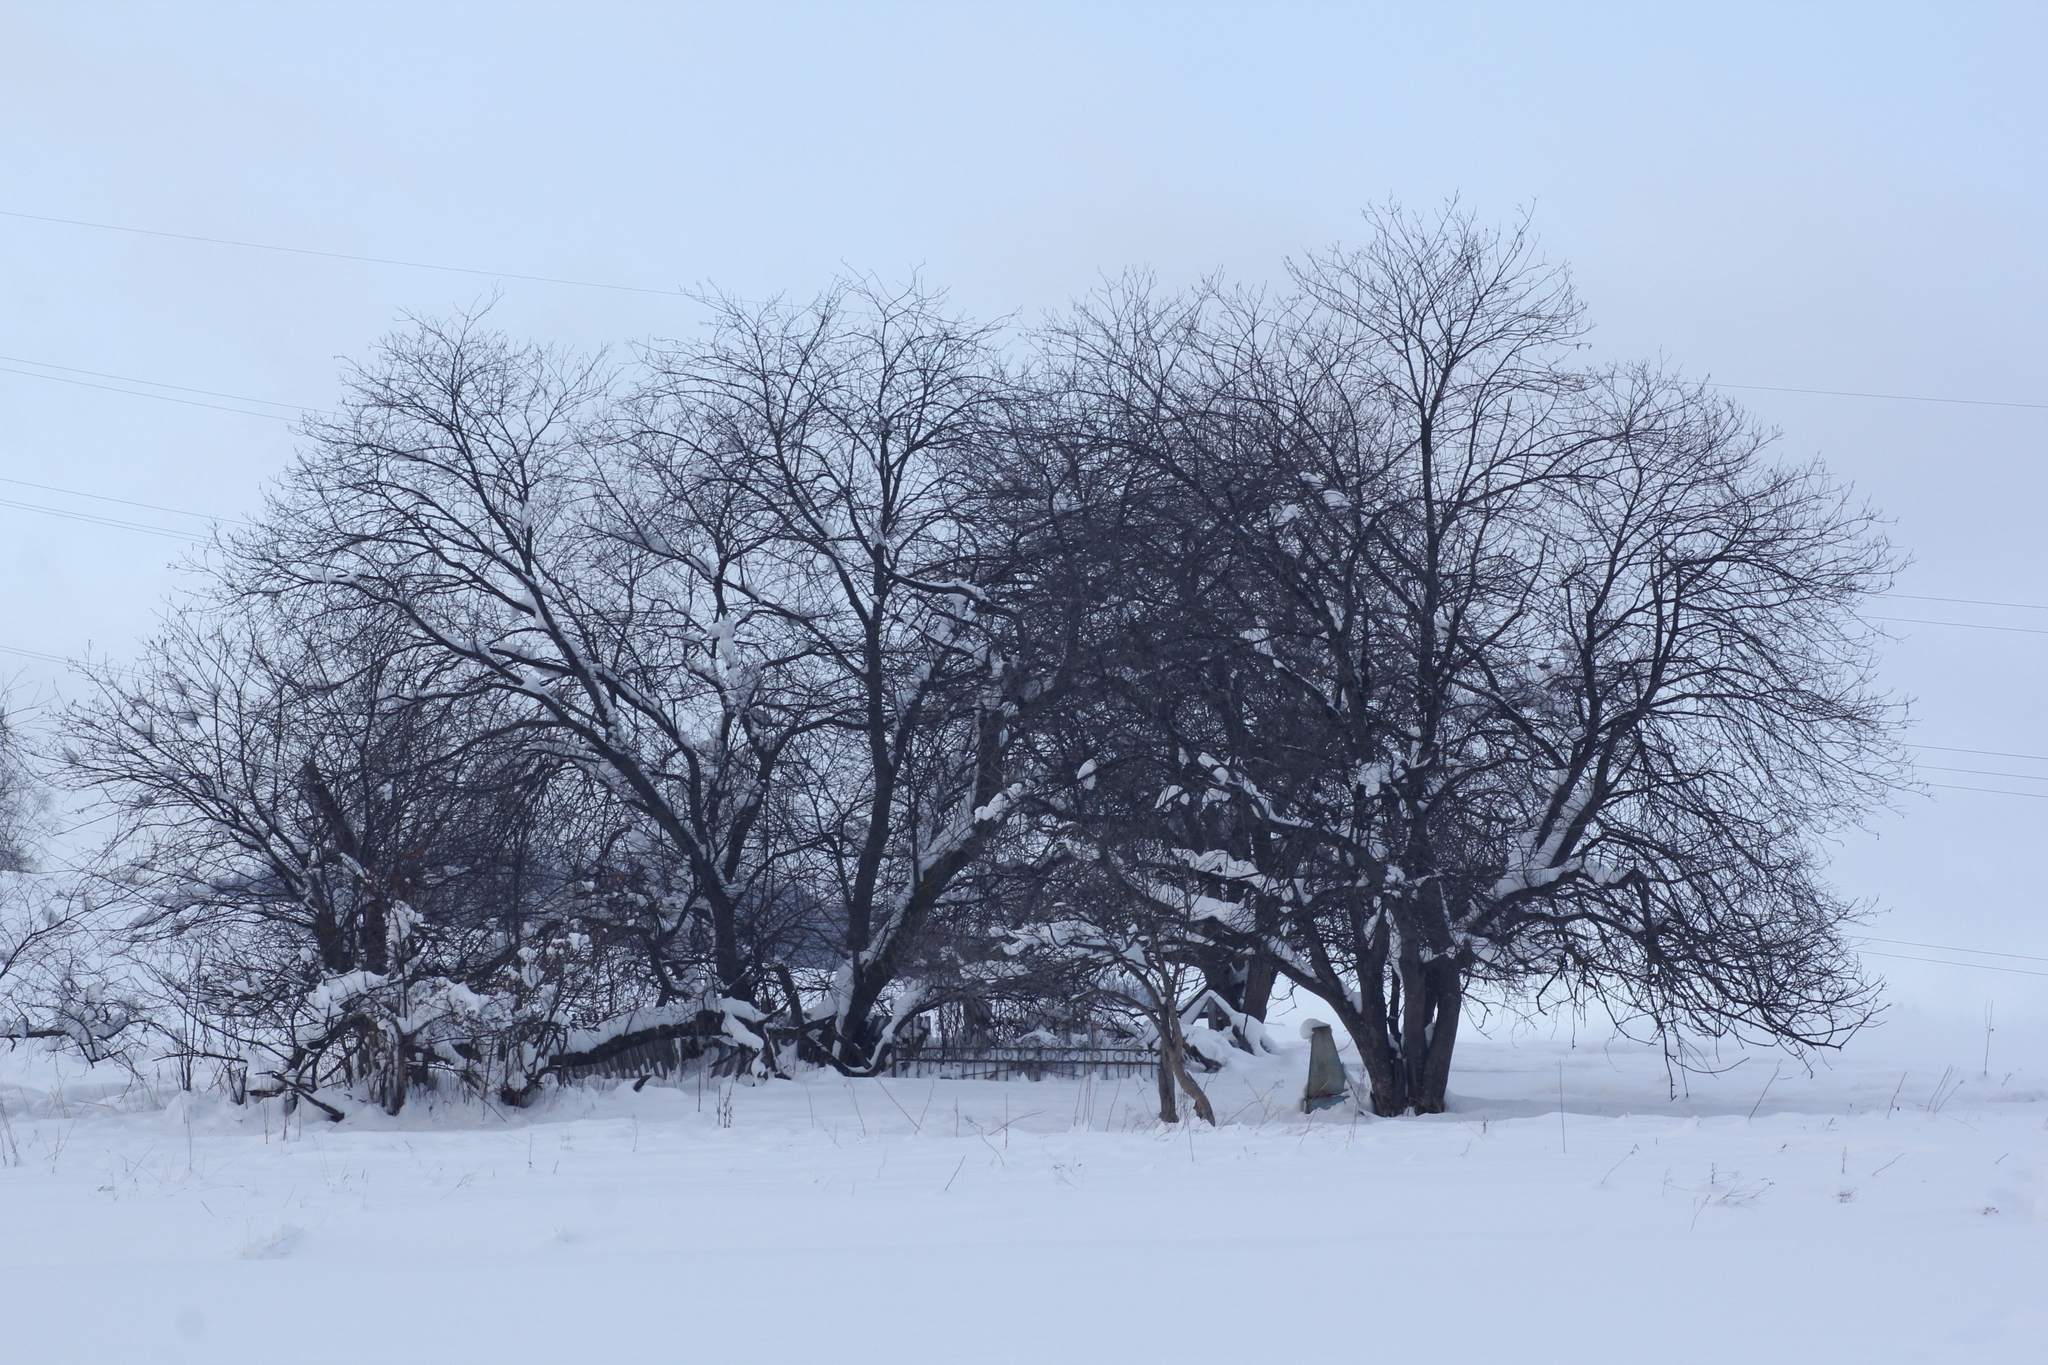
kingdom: Plantae
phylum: Tracheophyta
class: Magnoliopsida
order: Rosales
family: Rosaceae
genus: Prunus
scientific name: Prunus padus
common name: Bird cherry
